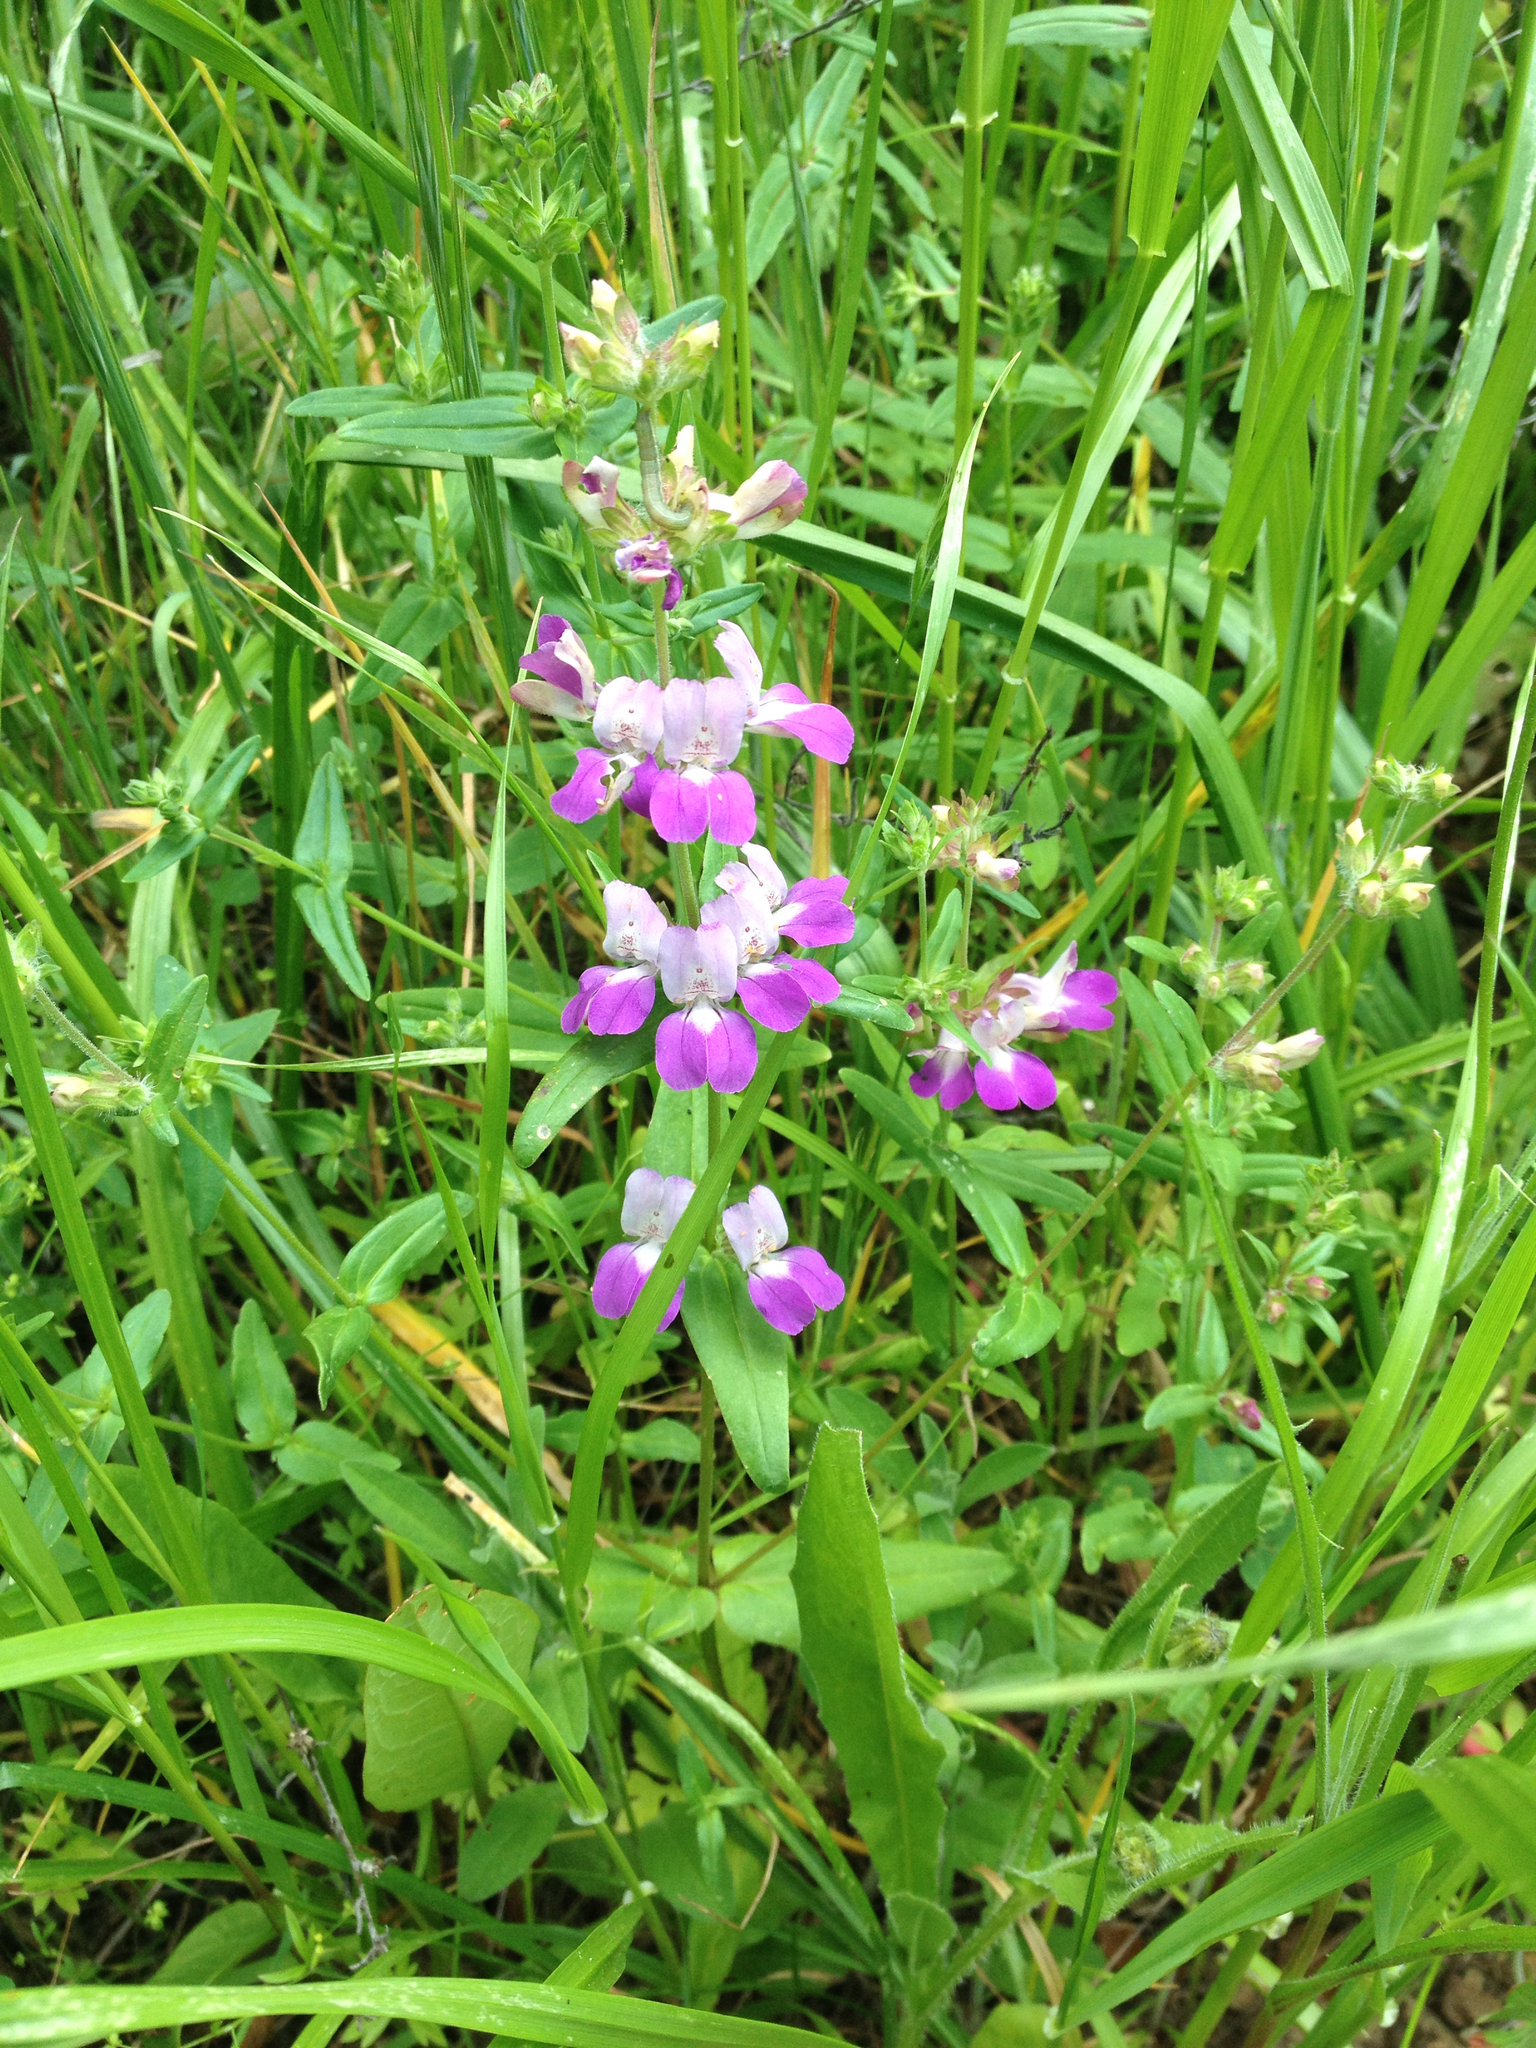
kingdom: Plantae
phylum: Tracheophyta
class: Magnoliopsida
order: Lamiales
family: Plantaginaceae
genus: Collinsia
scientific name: Collinsia heterophylla
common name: Chinese-houses
